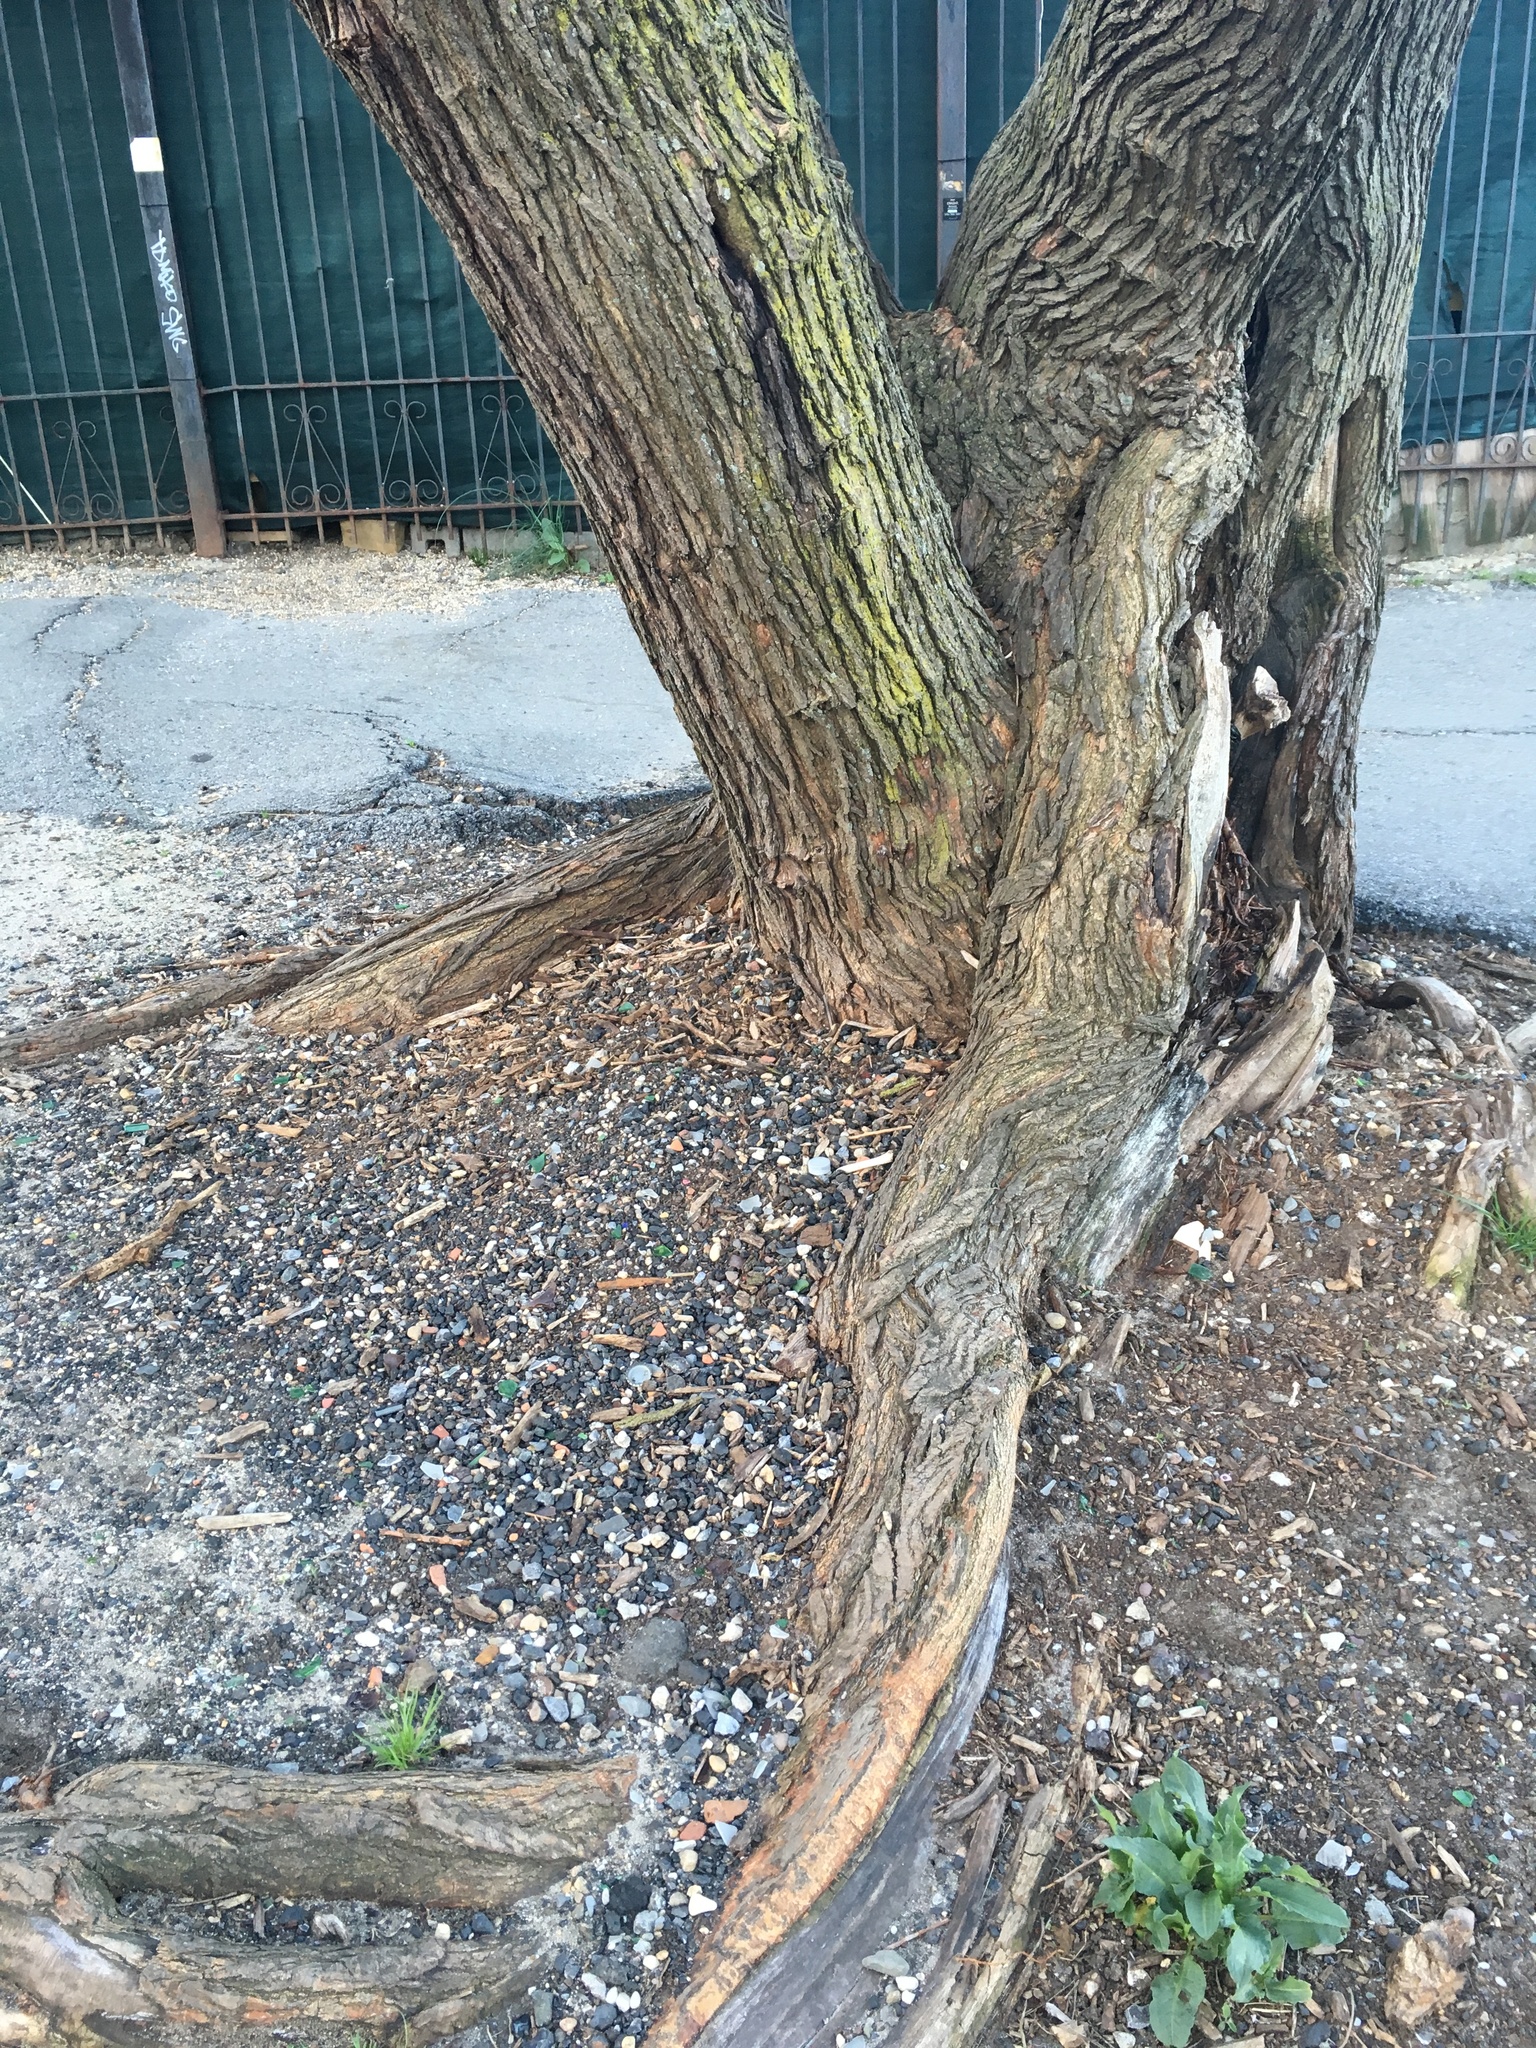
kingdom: Plantae
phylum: Tracheophyta
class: Magnoliopsida
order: Rosales
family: Moraceae
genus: Morus
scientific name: Morus alba
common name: White mulberry
